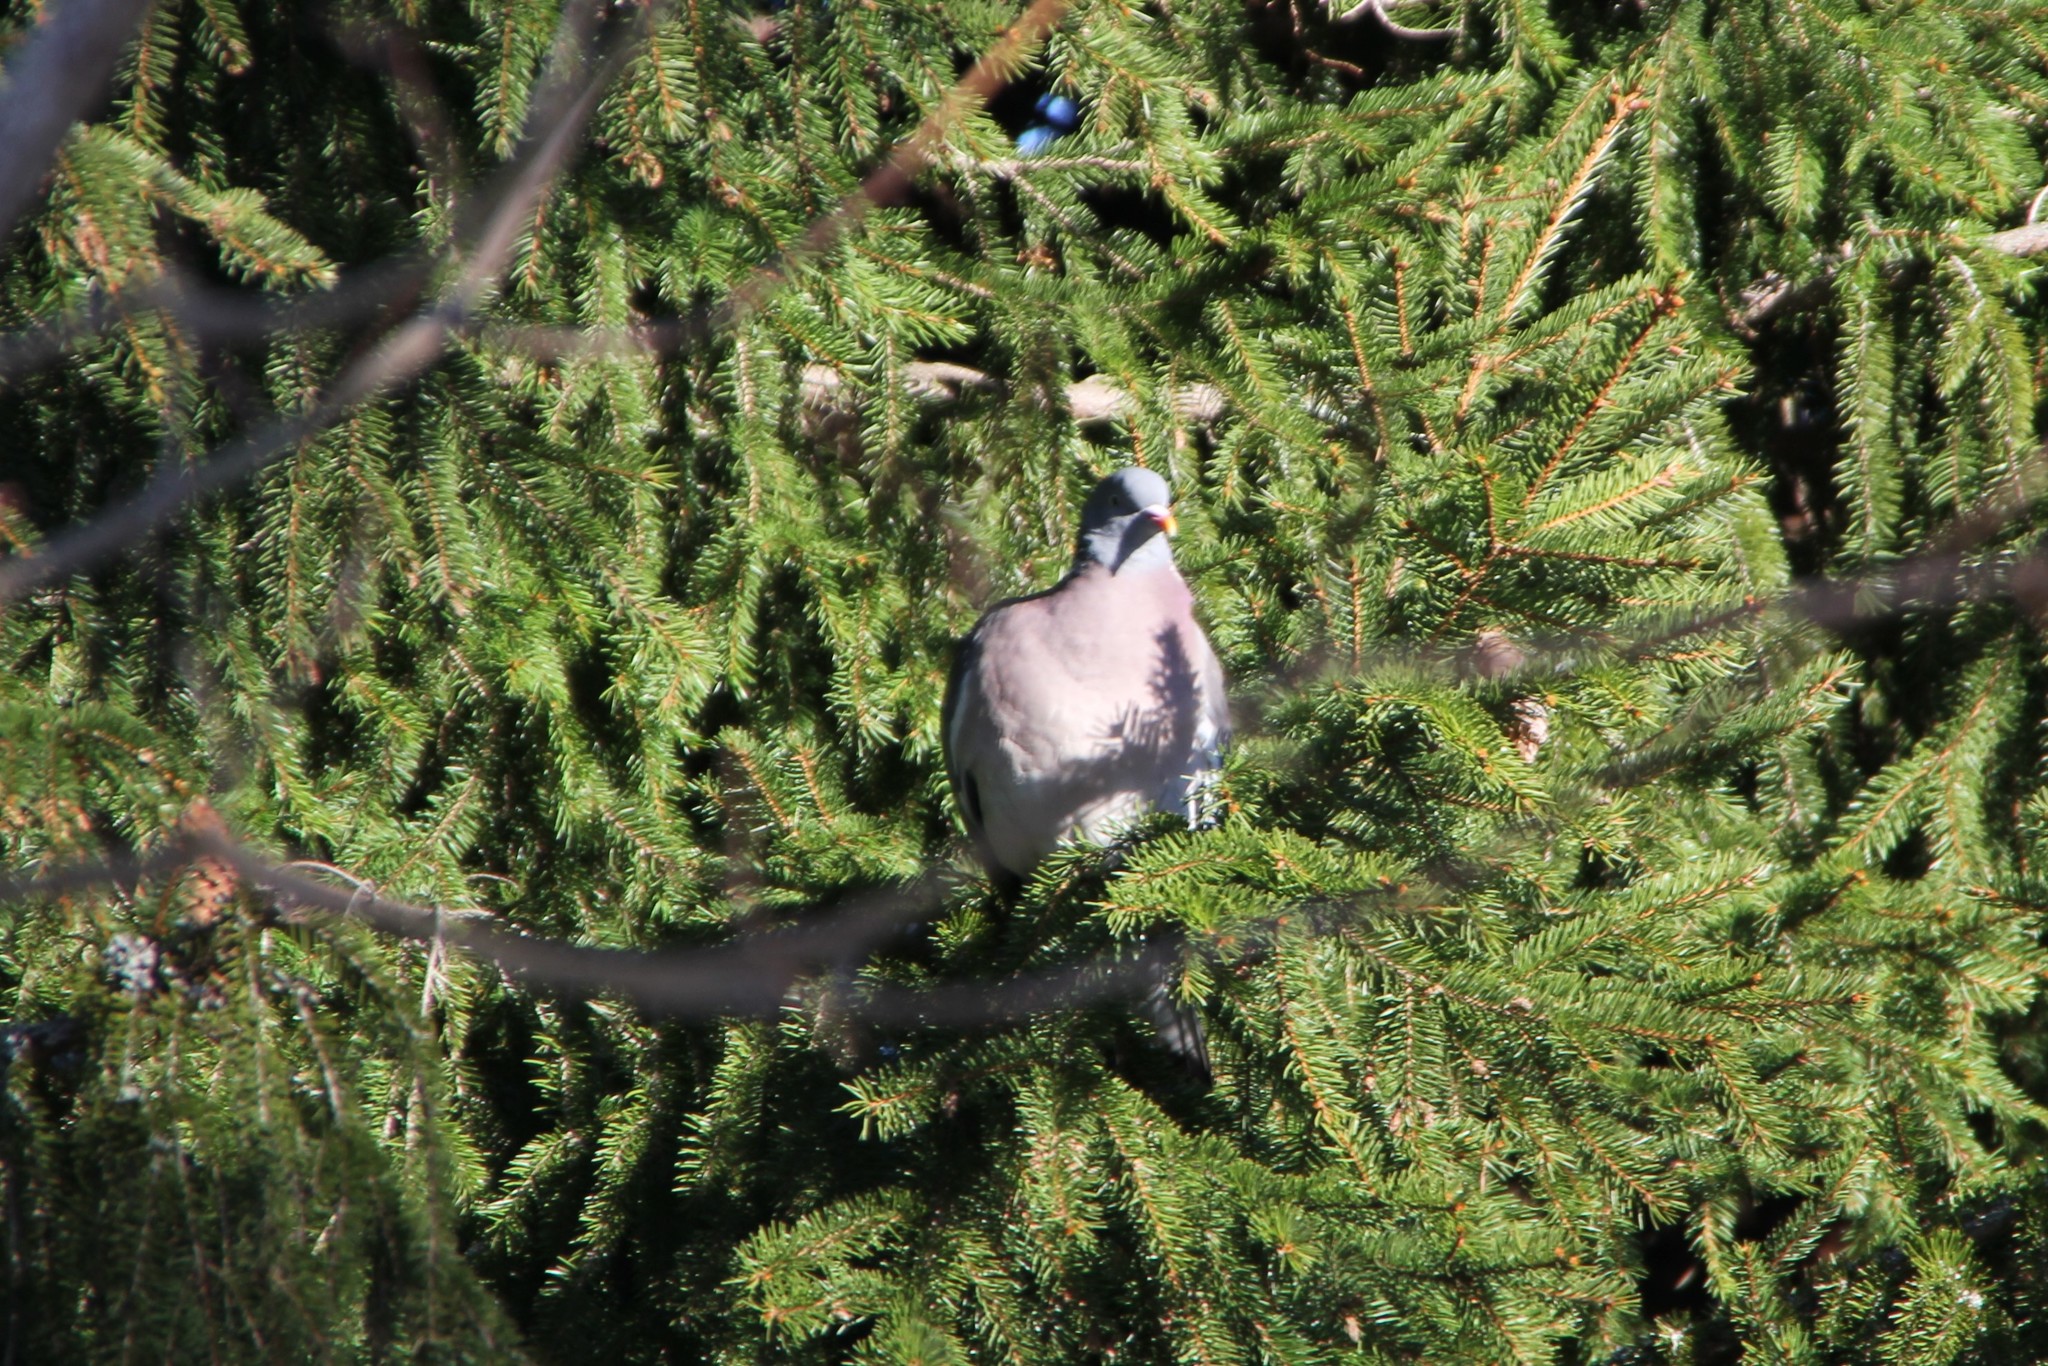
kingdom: Animalia
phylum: Chordata
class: Aves
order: Columbiformes
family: Columbidae
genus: Columba
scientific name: Columba palumbus
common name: Common wood pigeon
